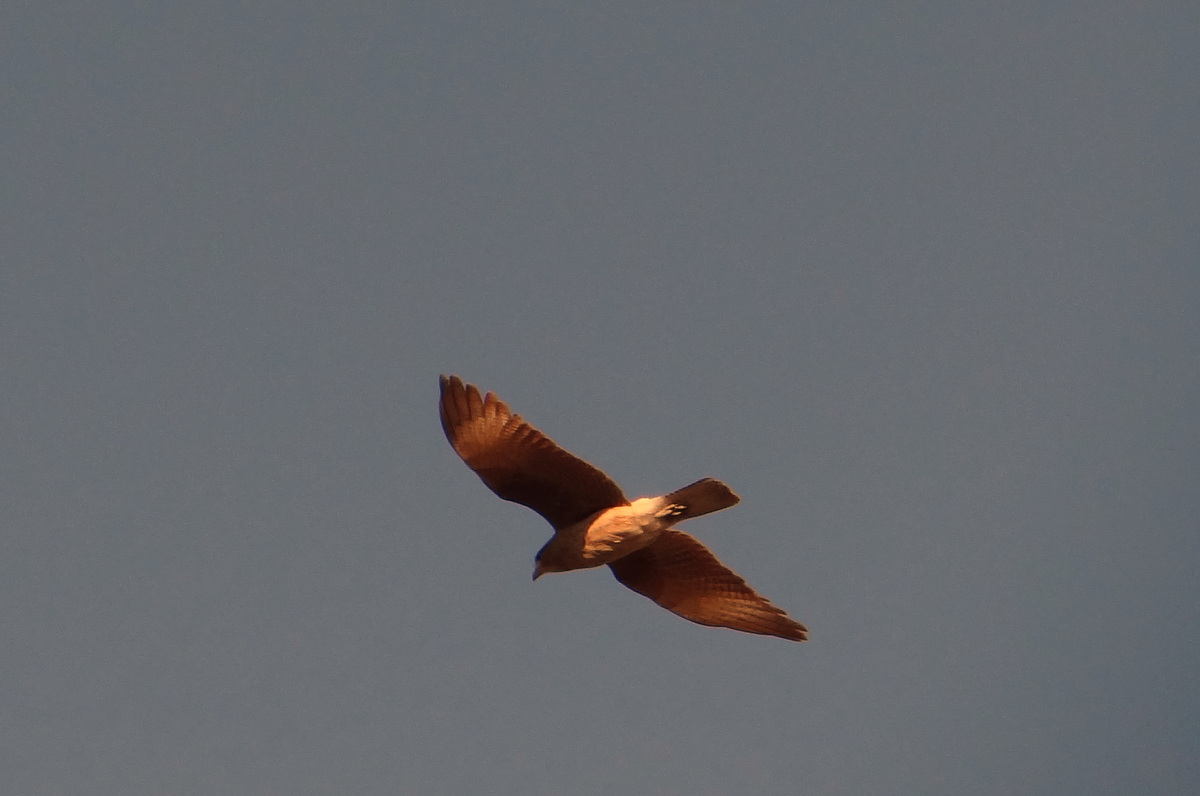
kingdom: Animalia
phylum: Chordata
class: Aves
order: Falconiformes
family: Falconidae
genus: Daptrius
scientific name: Daptrius
